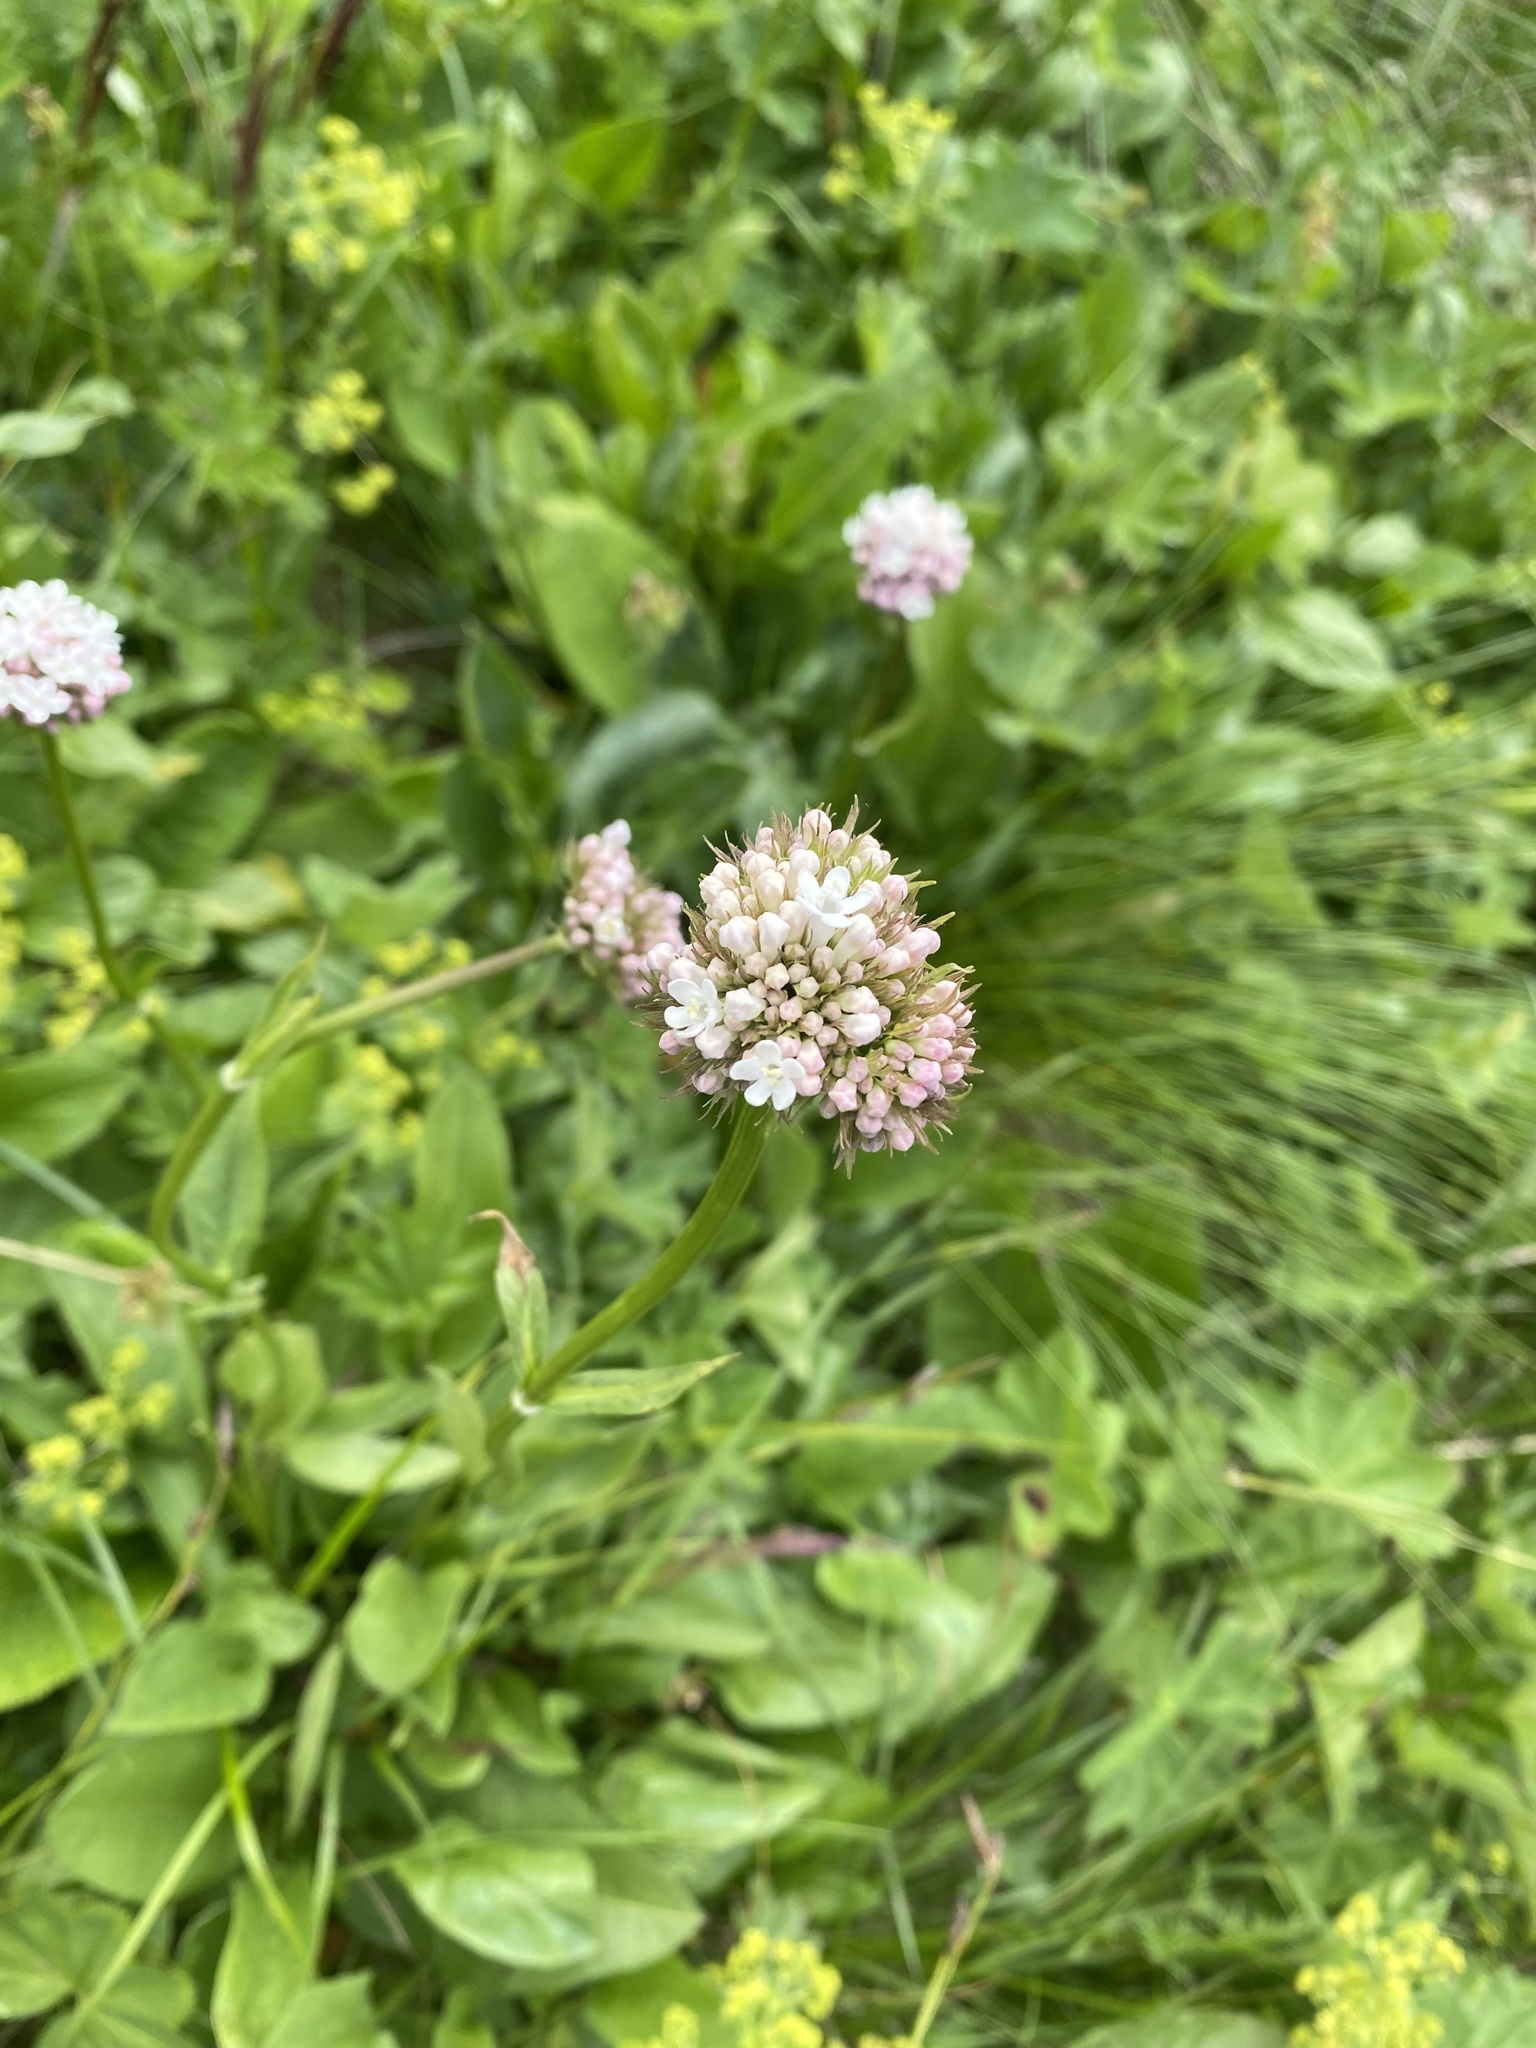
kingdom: Plantae
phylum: Tracheophyta
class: Magnoliopsida
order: Dipsacales
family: Caprifoliaceae
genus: Valeriana
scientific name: Valeriana alpestris
